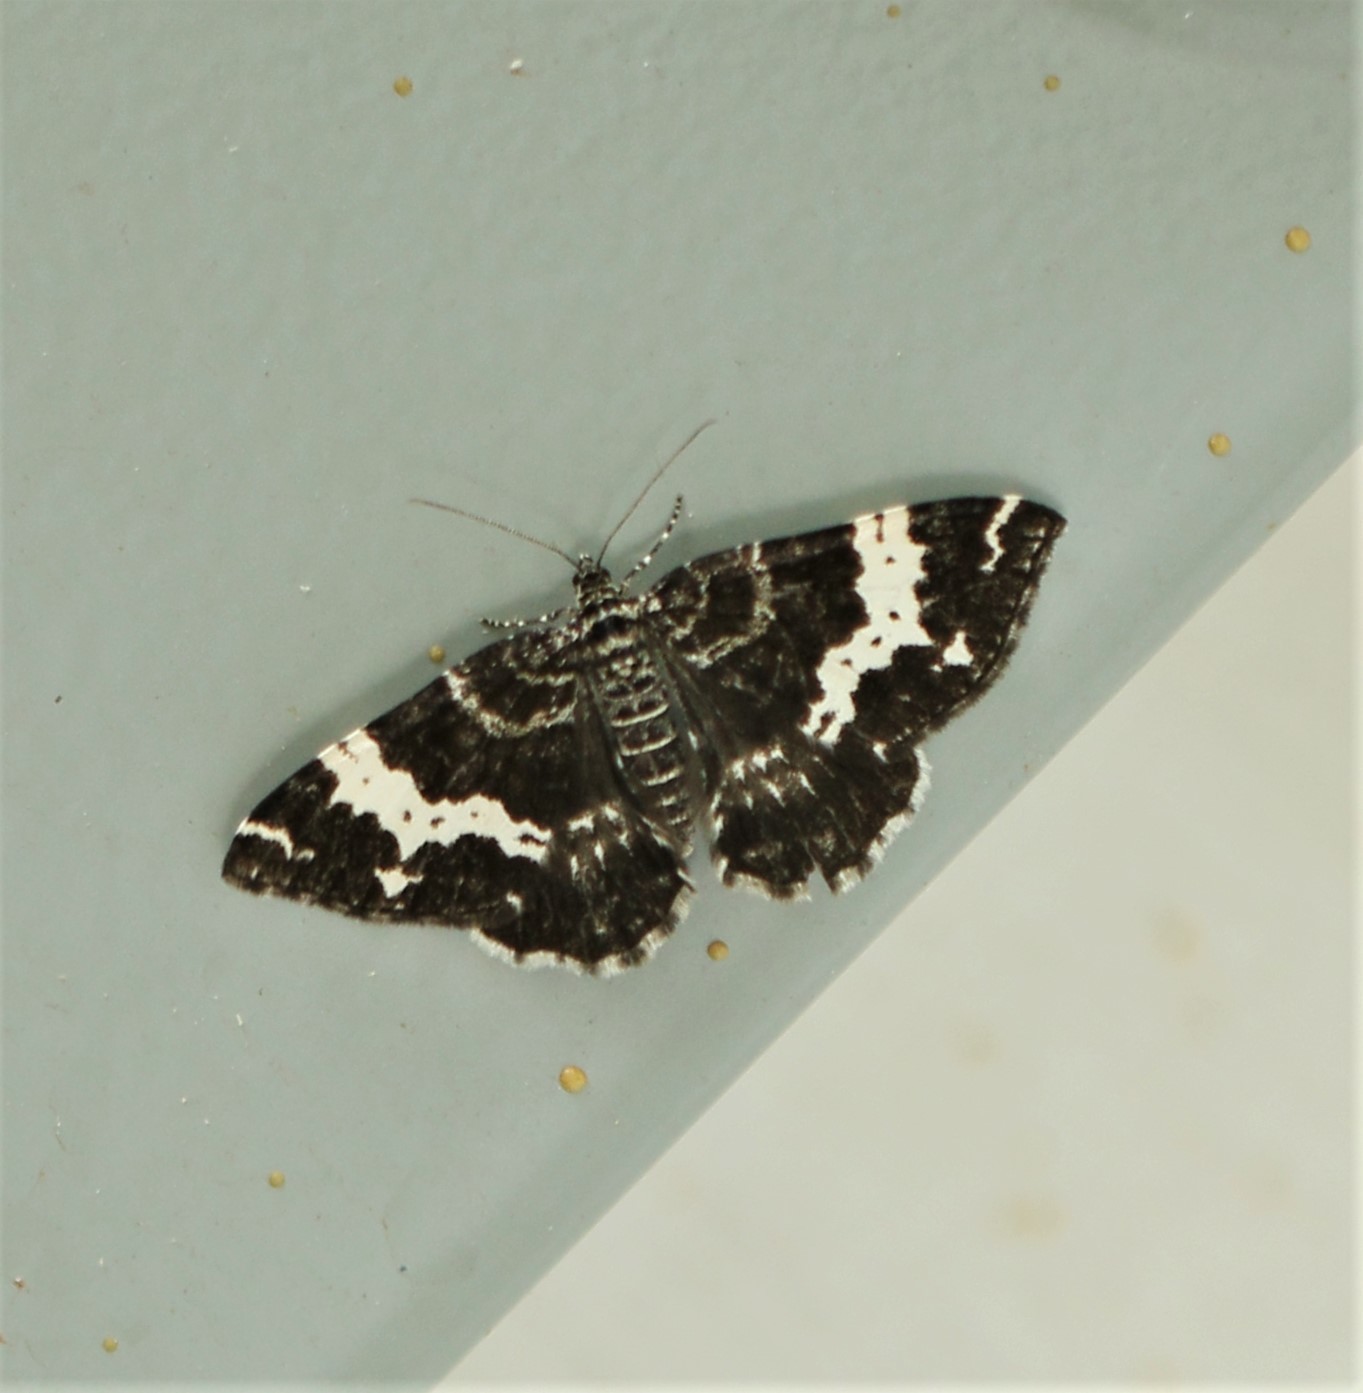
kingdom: Animalia
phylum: Arthropoda
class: Insecta
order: Lepidoptera
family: Geometridae
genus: Rheumaptera
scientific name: Rheumaptera
